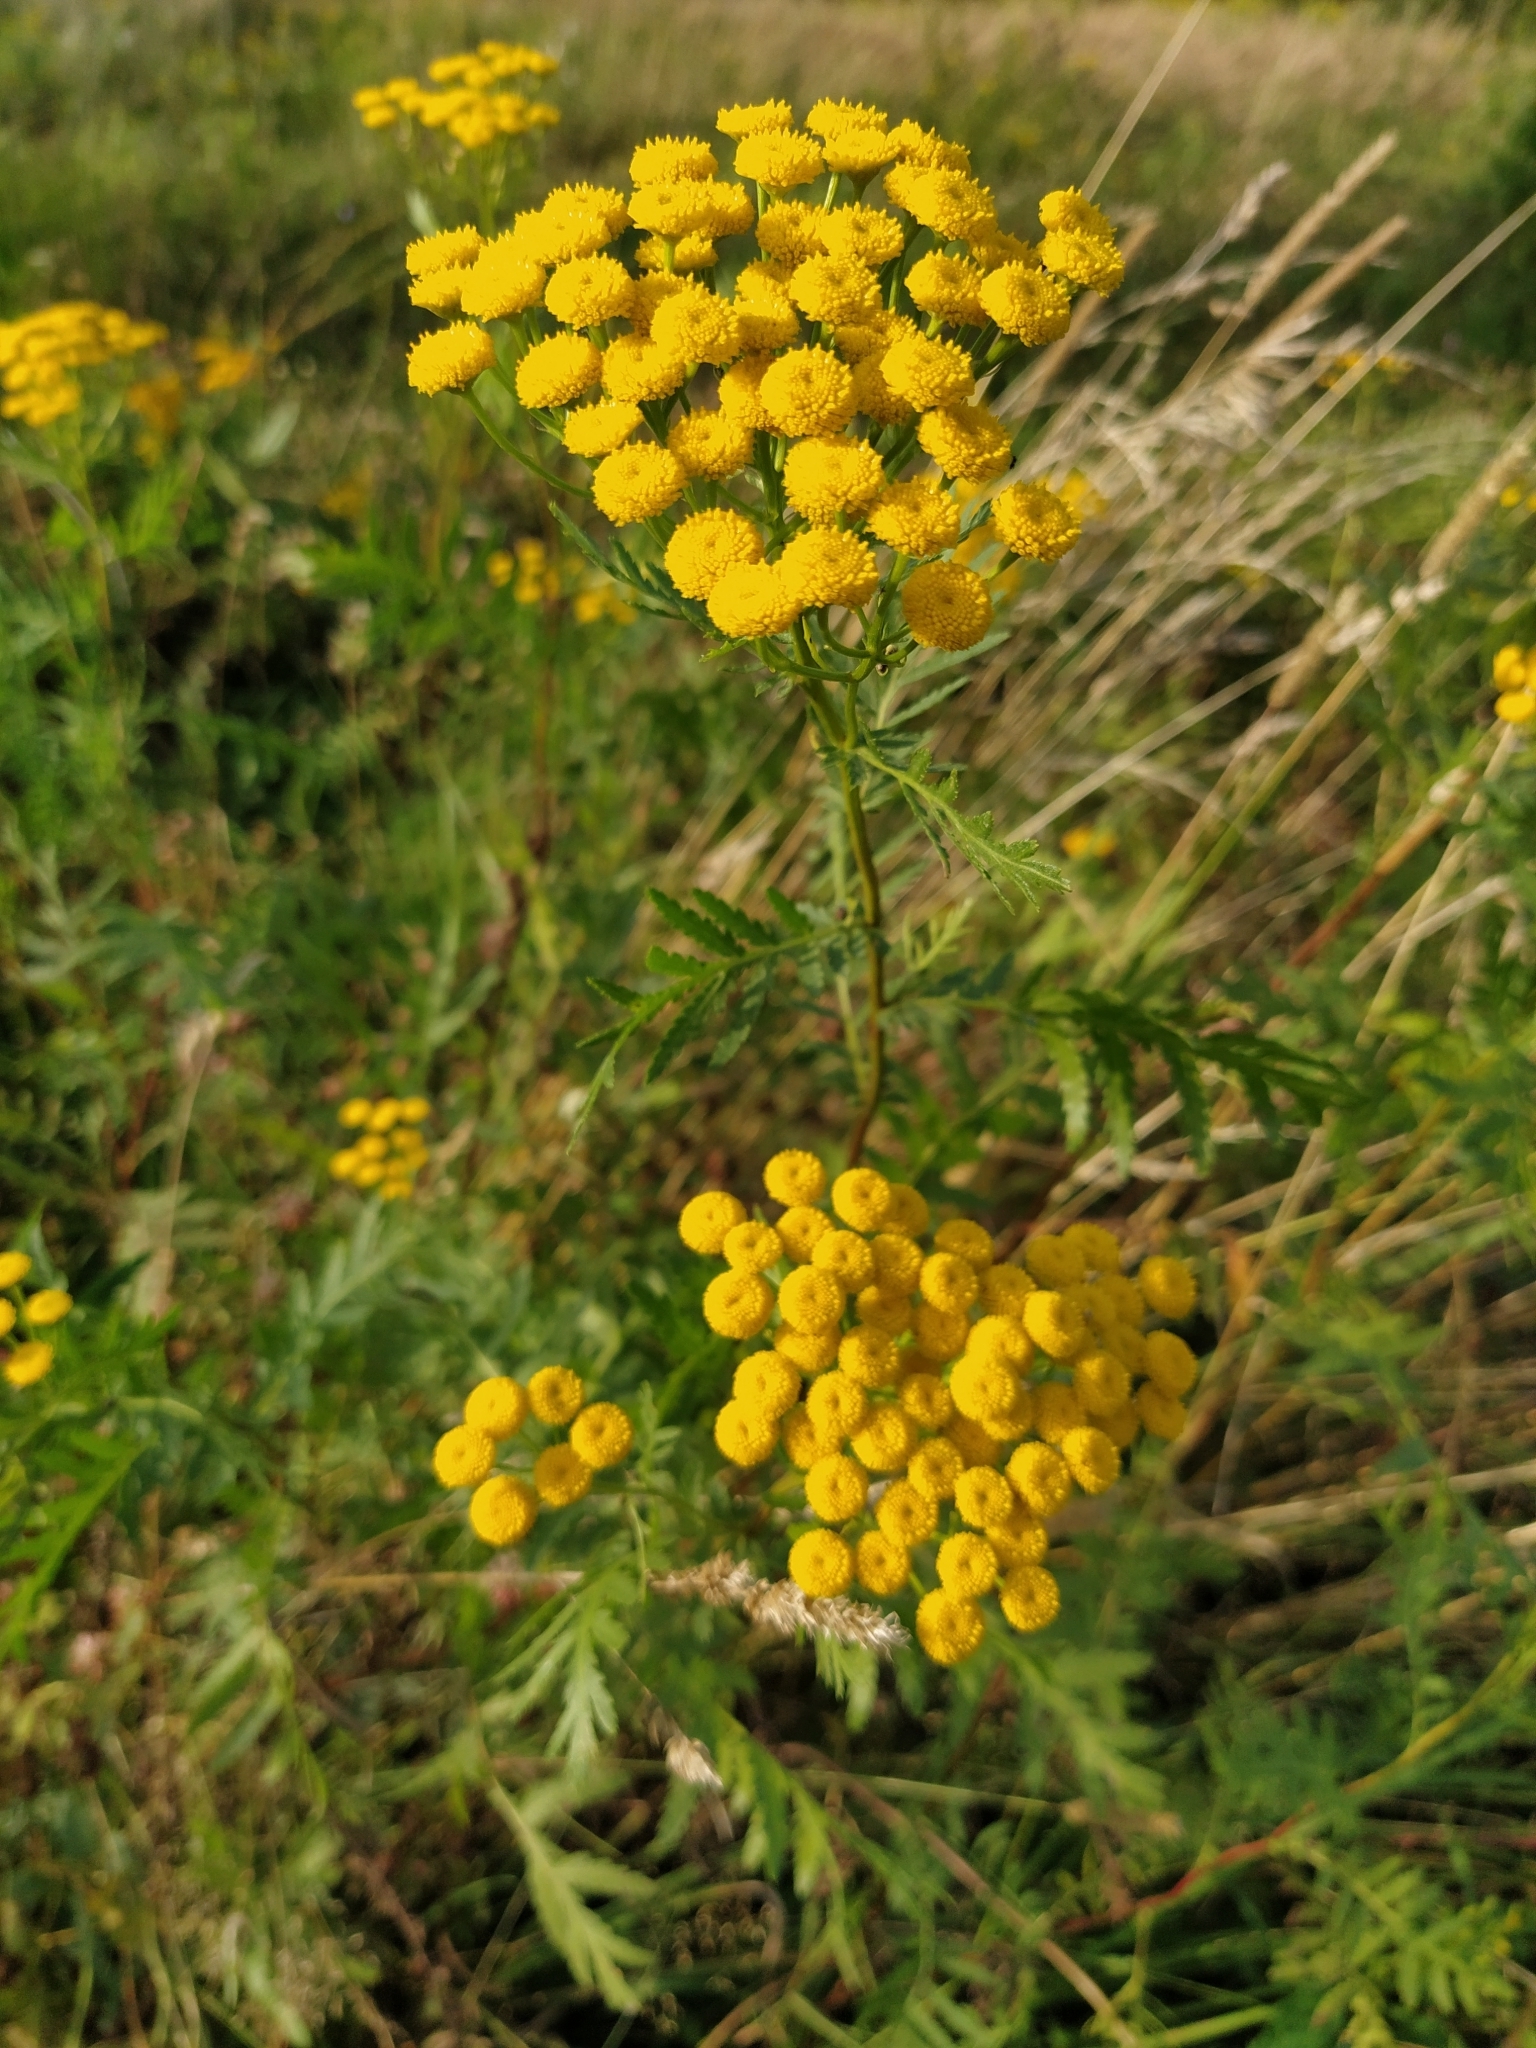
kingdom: Plantae
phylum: Tracheophyta
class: Magnoliopsida
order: Asterales
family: Asteraceae
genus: Tanacetum
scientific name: Tanacetum vulgare
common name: Common tansy
